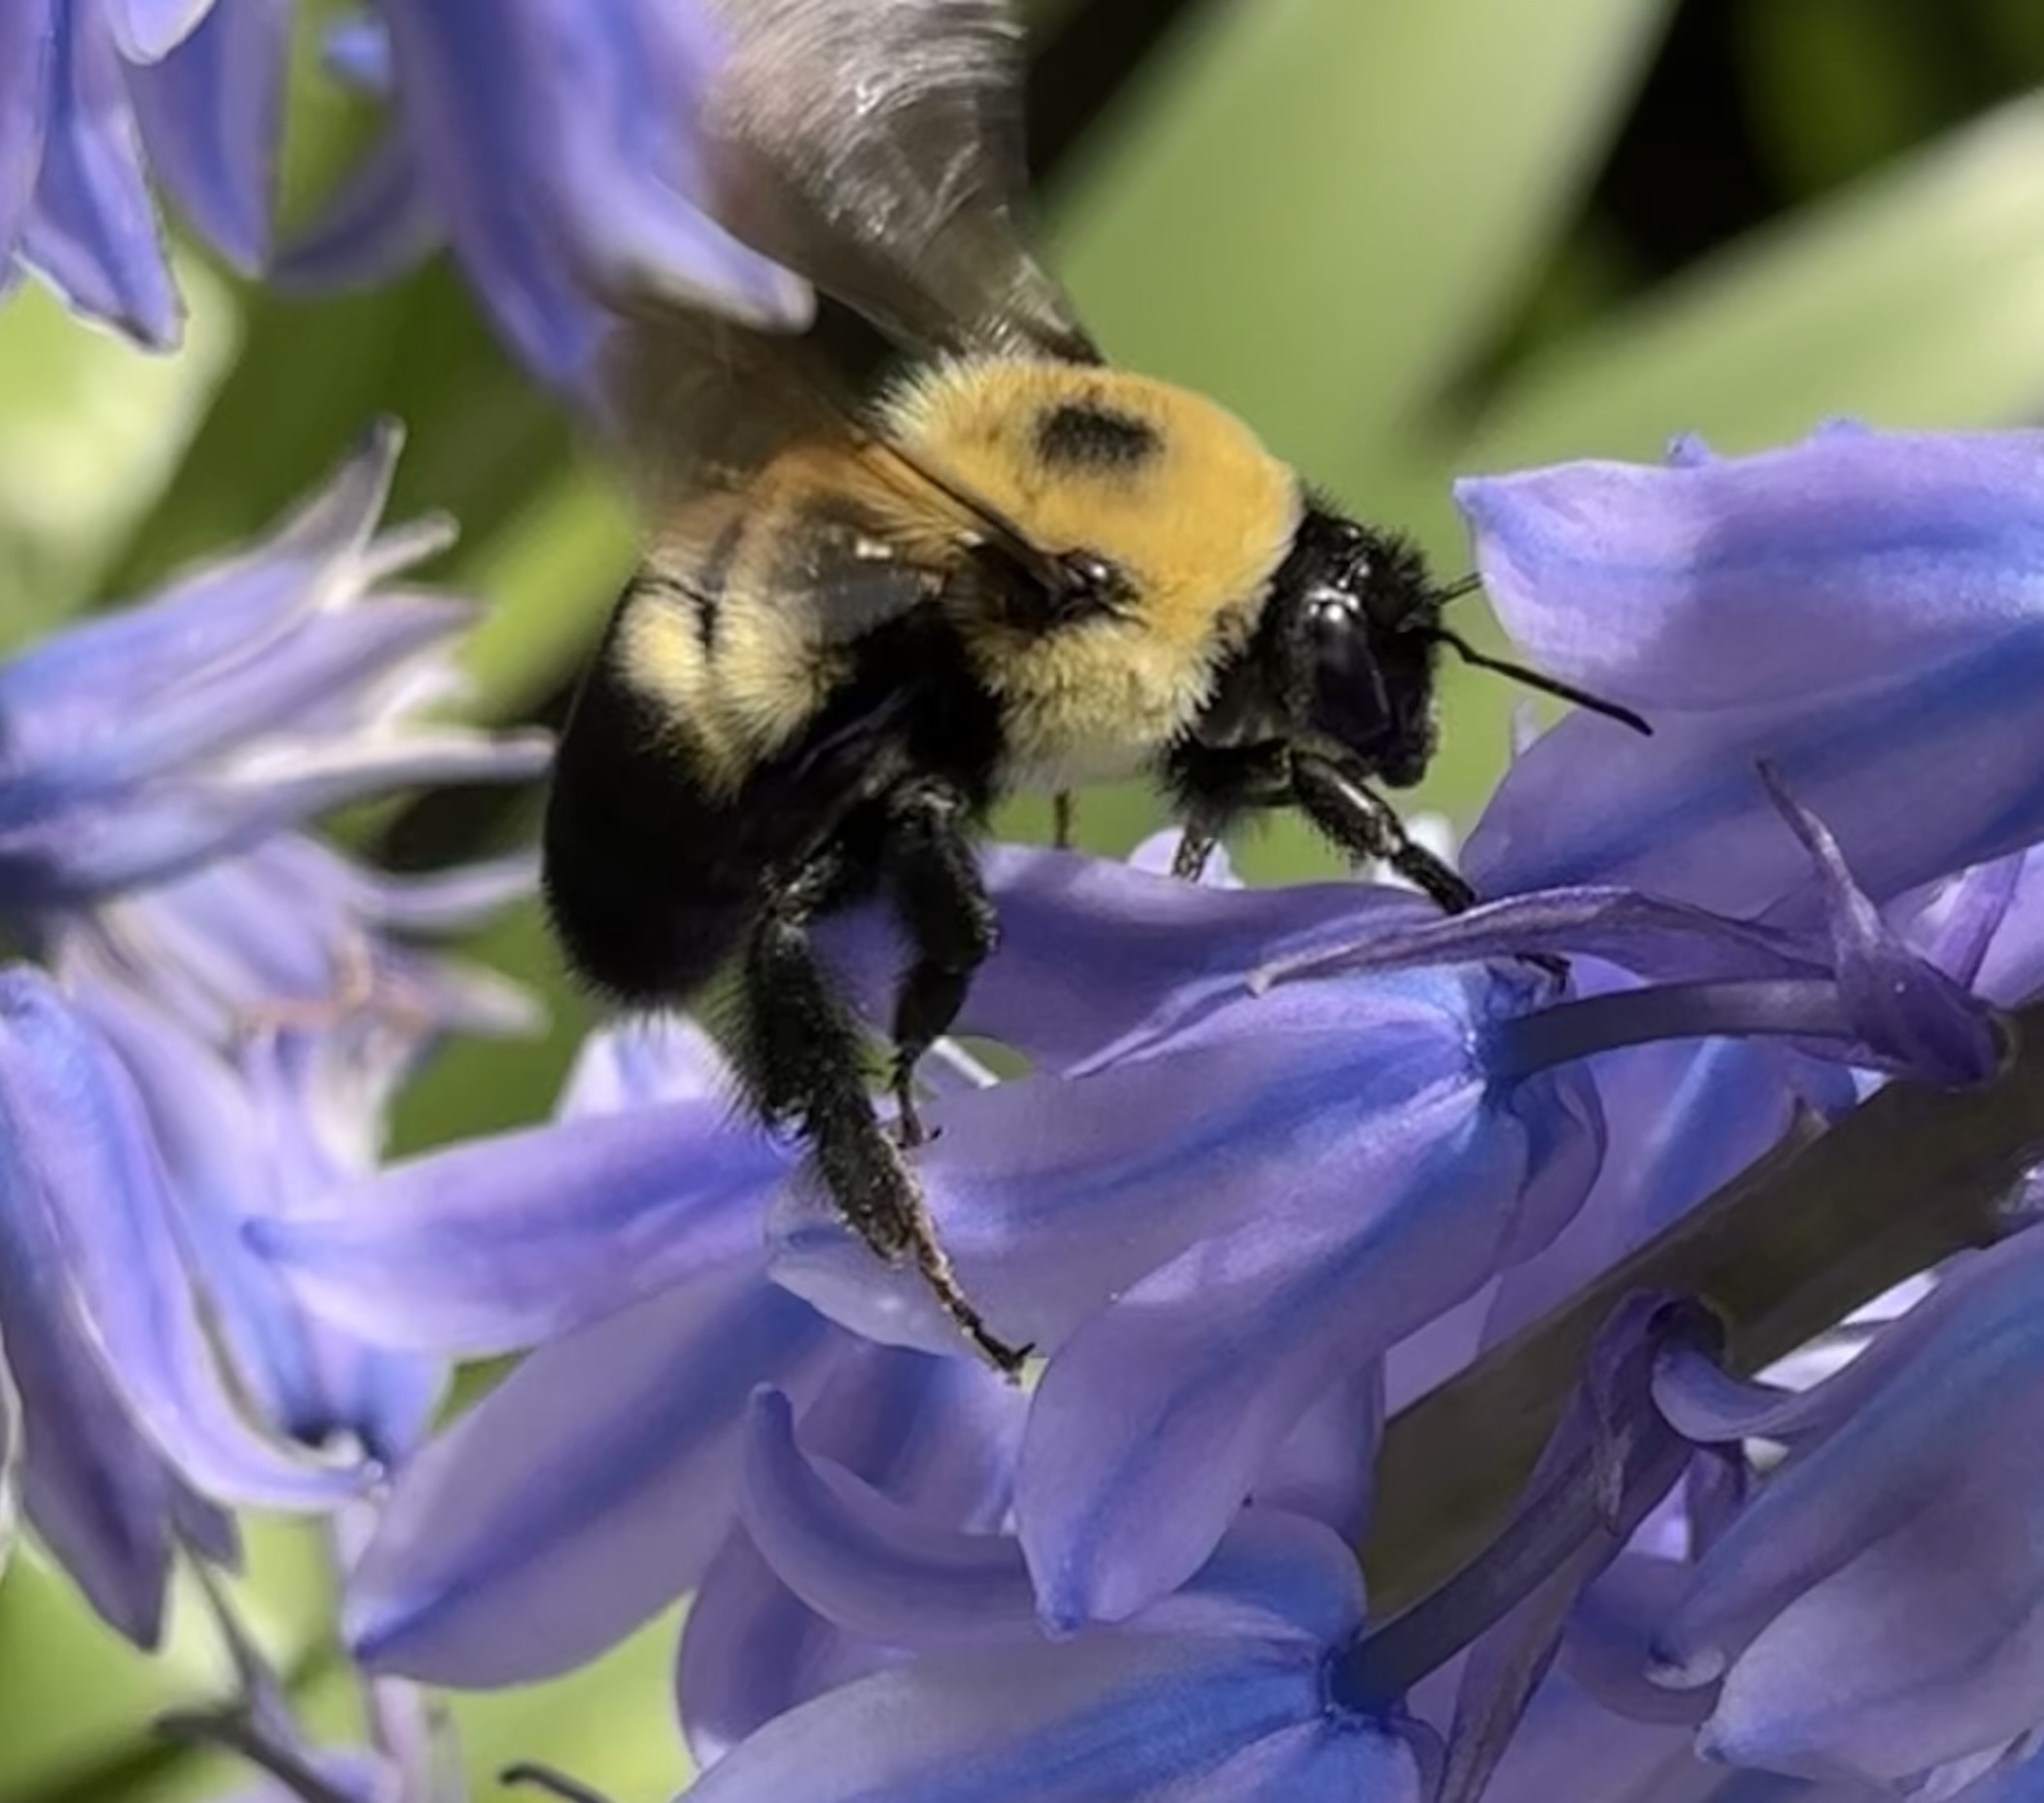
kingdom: Animalia
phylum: Arthropoda
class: Insecta
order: Hymenoptera
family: Apidae
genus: Bombus
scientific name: Bombus griseocollis
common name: Brown-belted bumble bee
